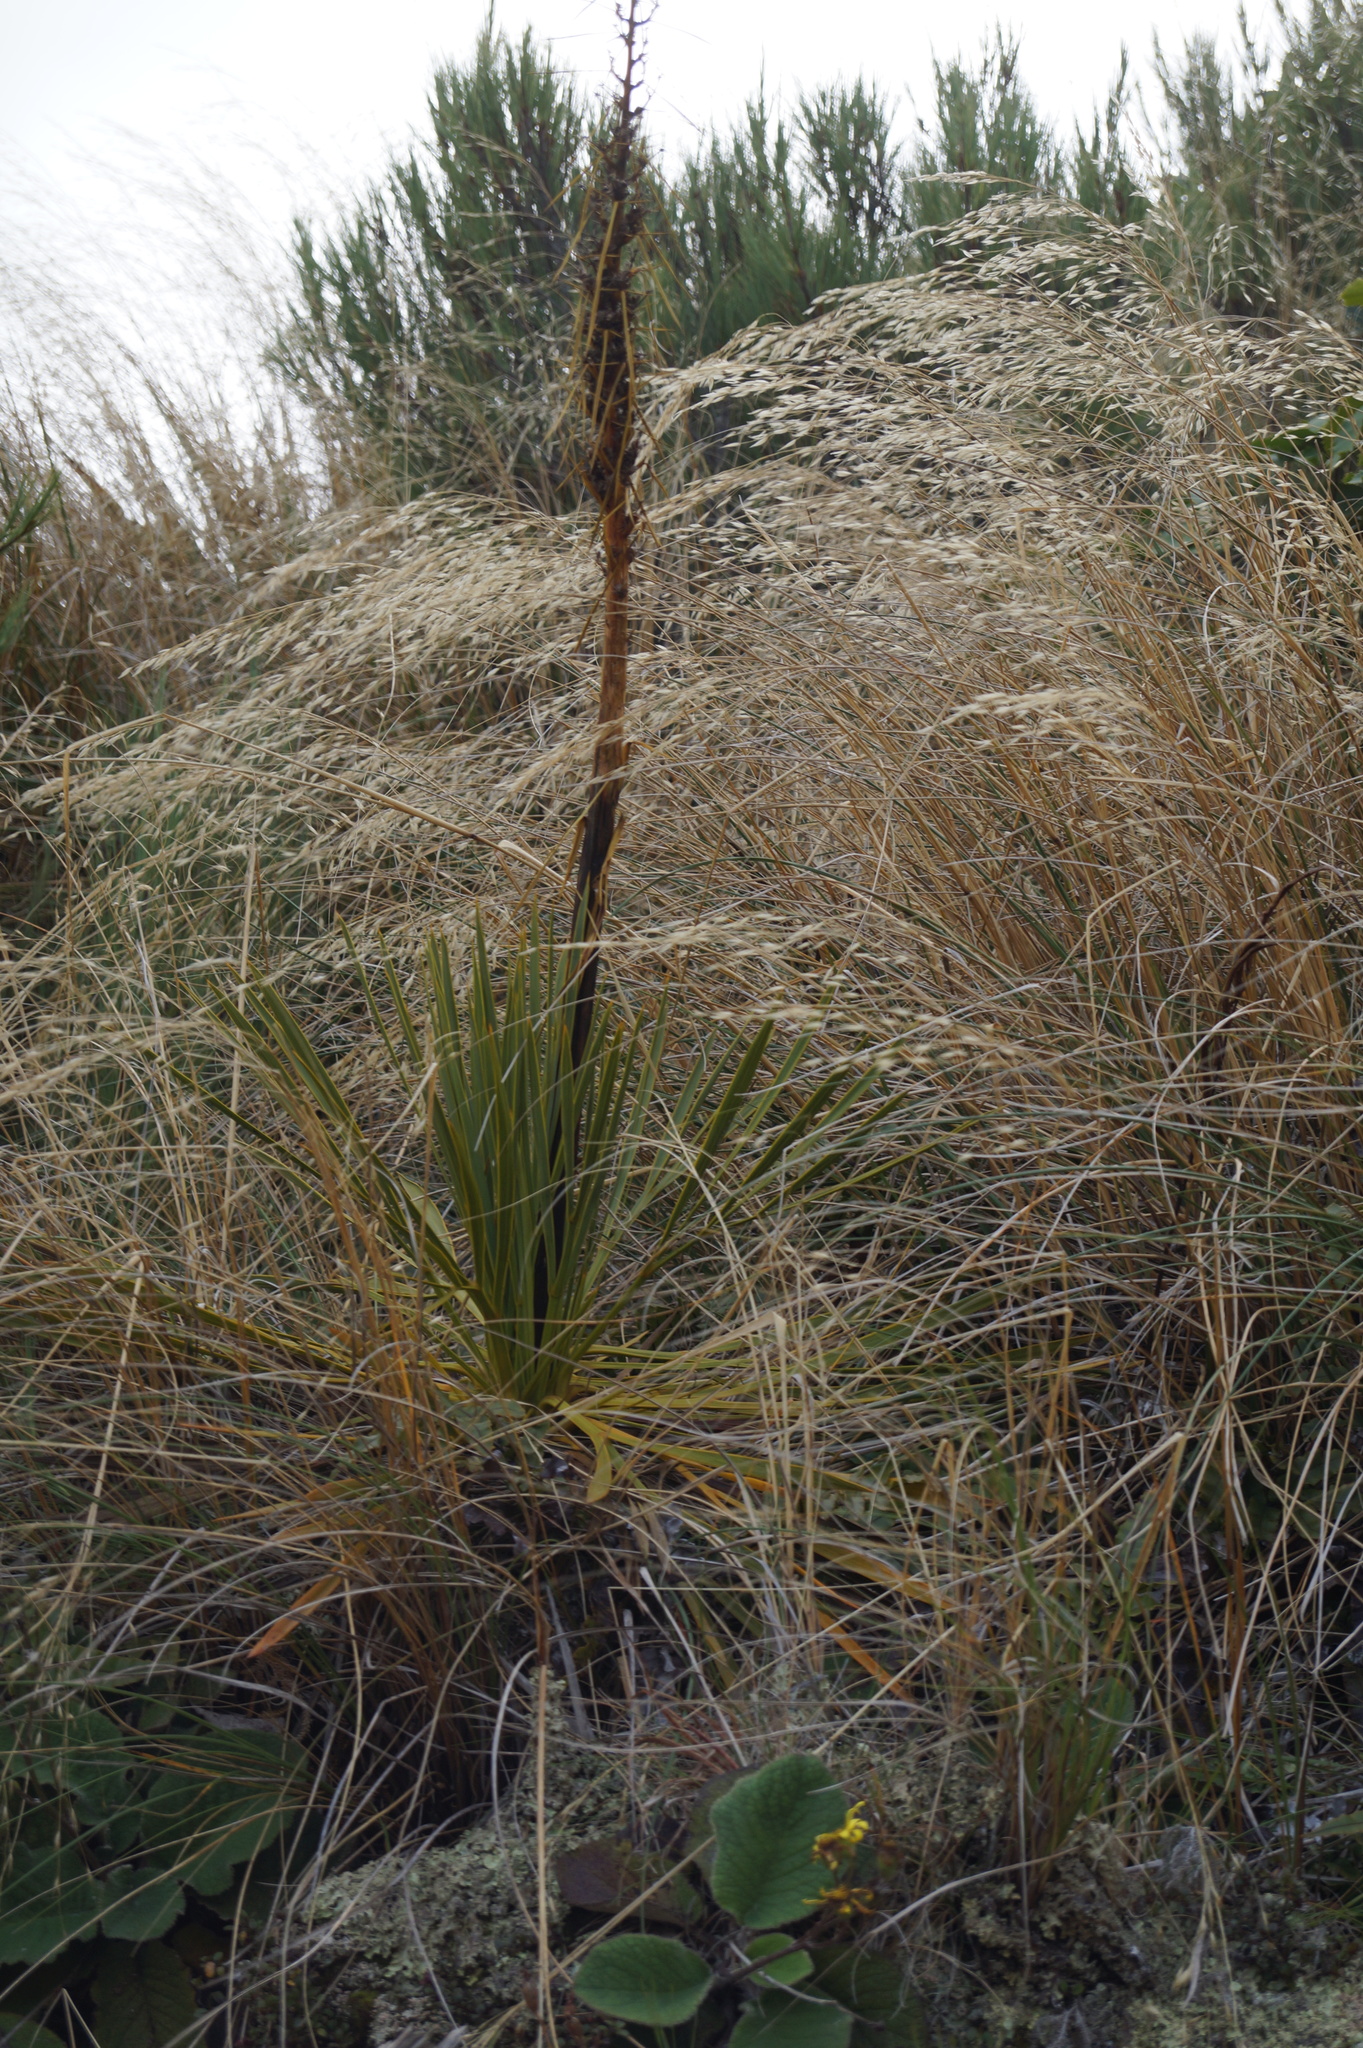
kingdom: Plantae
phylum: Tracheophyta
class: Magnoliopsida
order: Apiales
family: Apiaceae
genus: Aciphylla
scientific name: Aciphylla aurea
